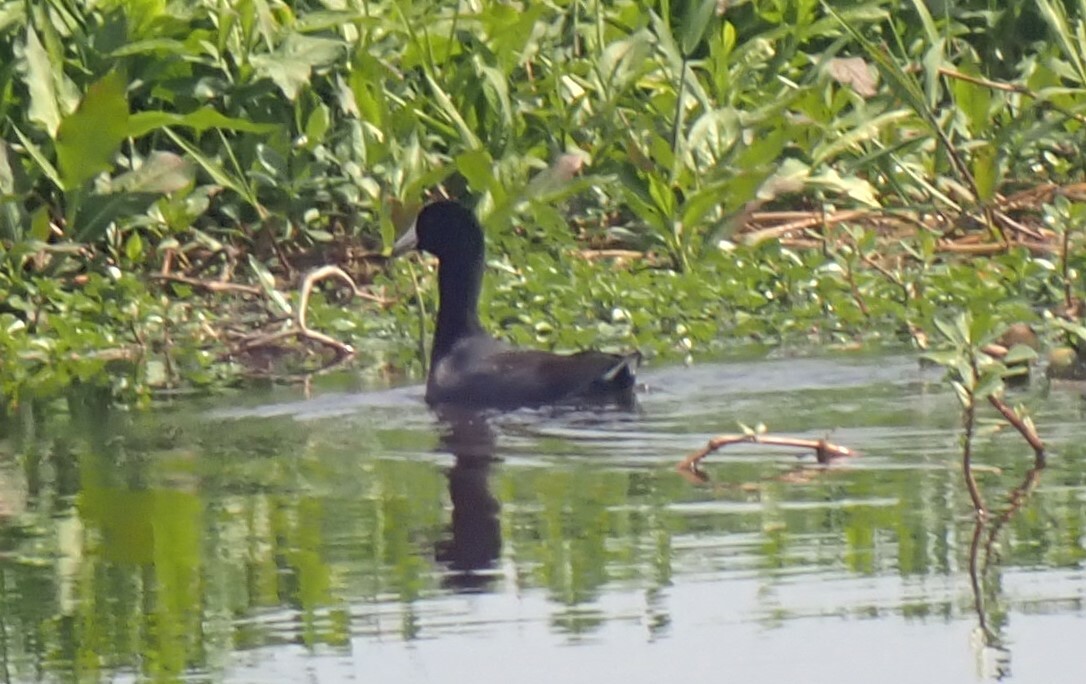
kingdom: Animalia
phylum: Chordata
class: Aves
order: Gruiformes
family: Rallidae
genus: Fulica
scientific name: Fulica americana
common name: American coot
